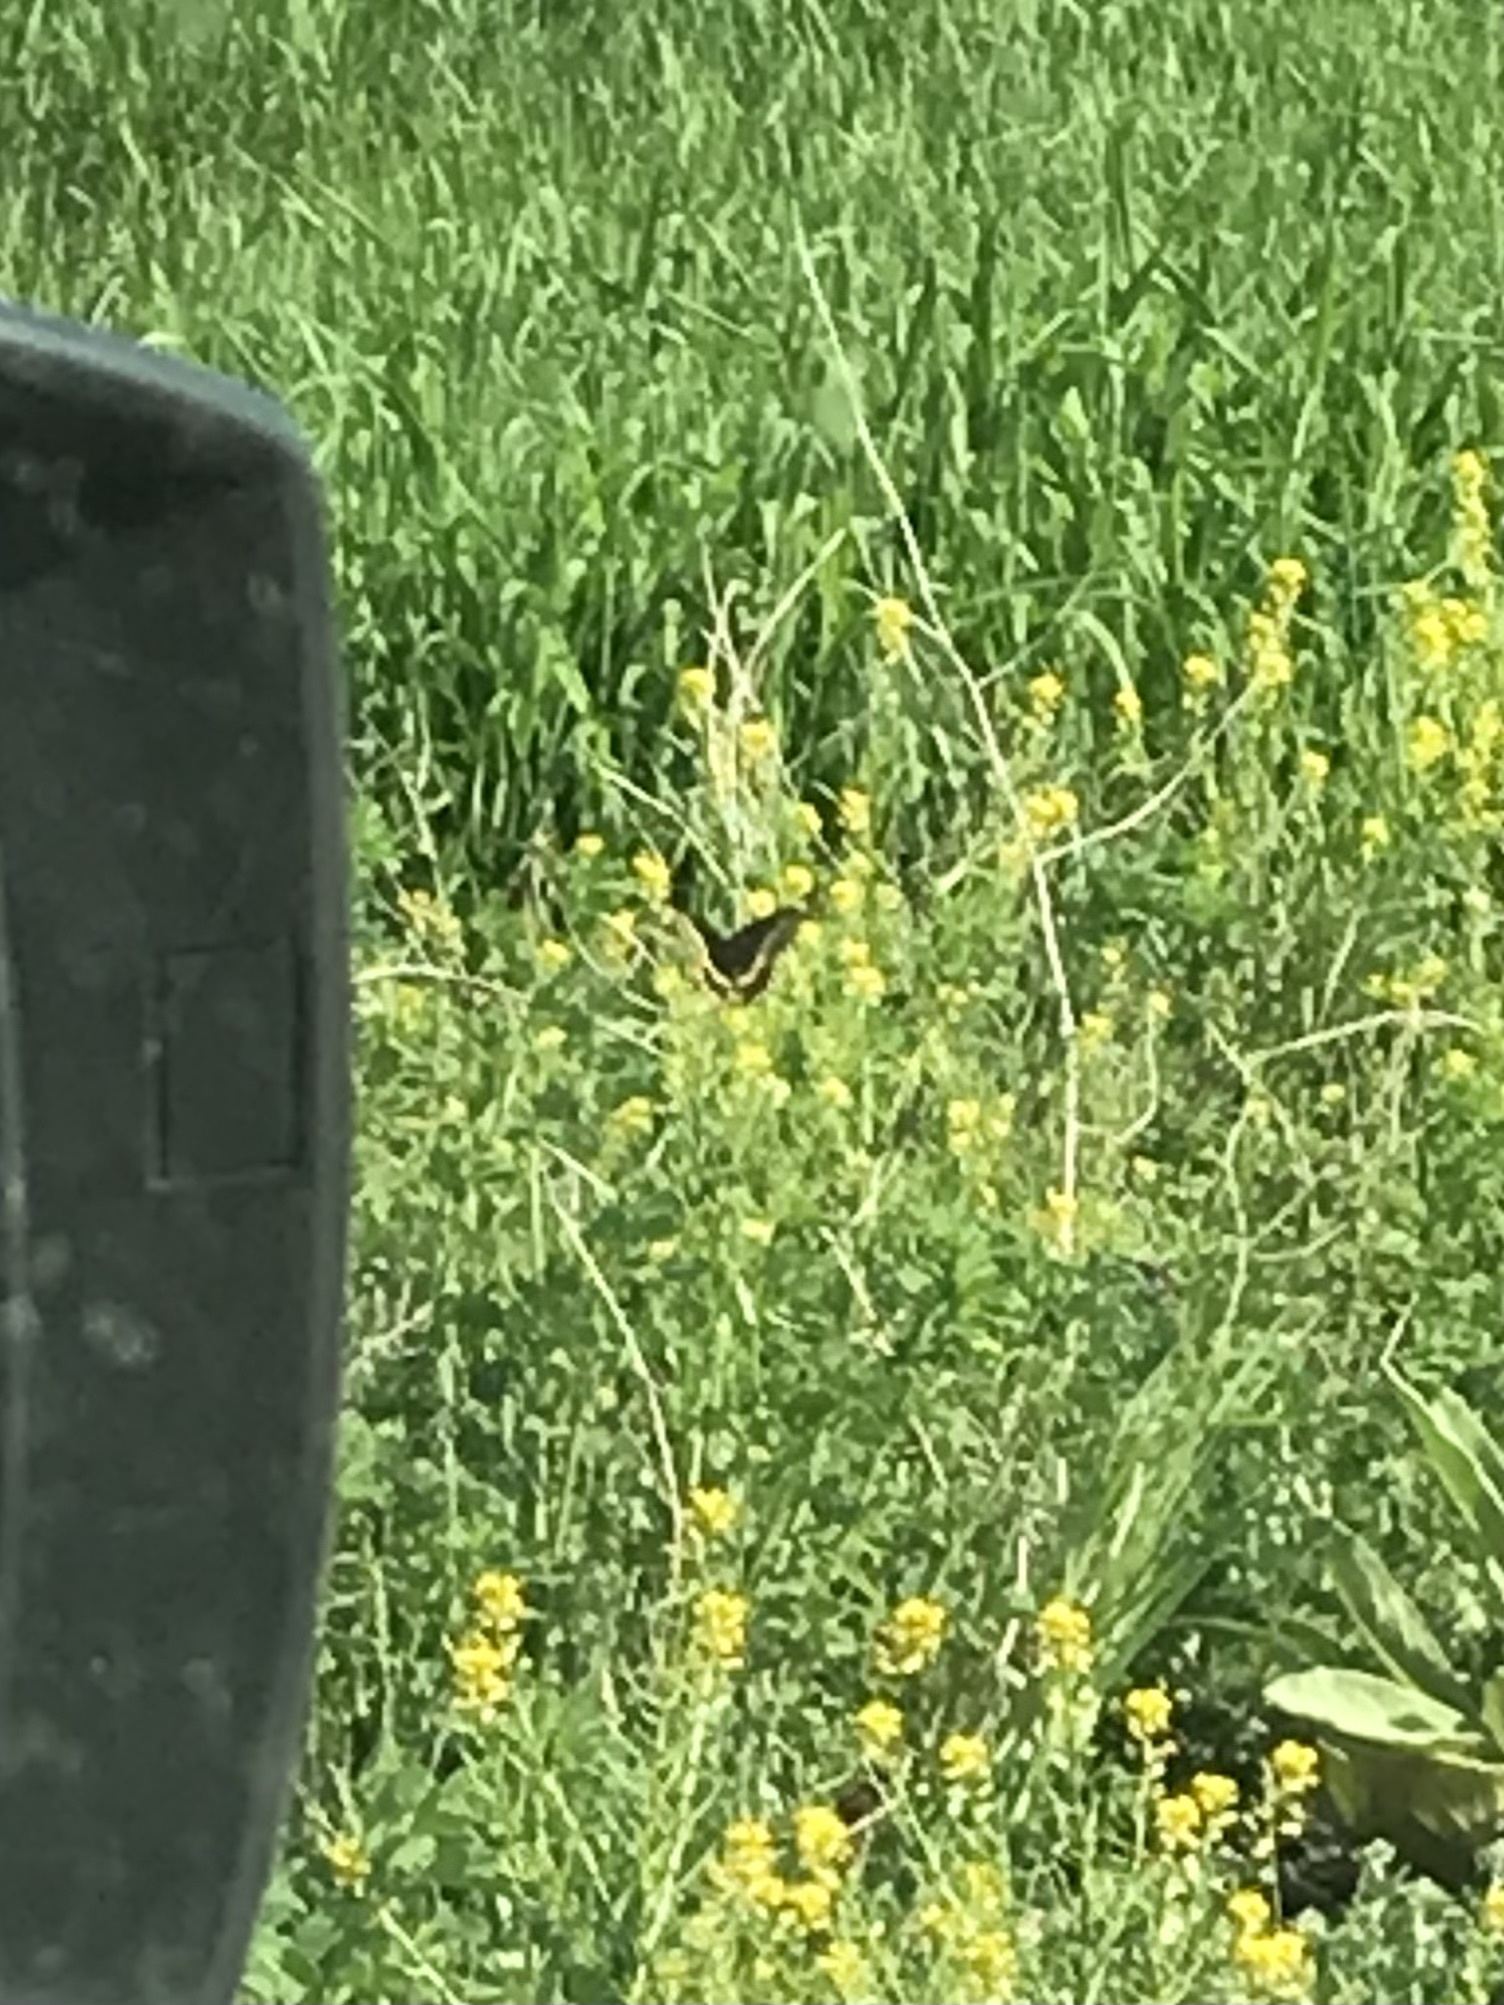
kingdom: Animalia
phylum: Arthropoda
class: Insecta
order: Lepidoptera
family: Papilionidae
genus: Papilio
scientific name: Papilio polyxenes
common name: Black swallowtail
